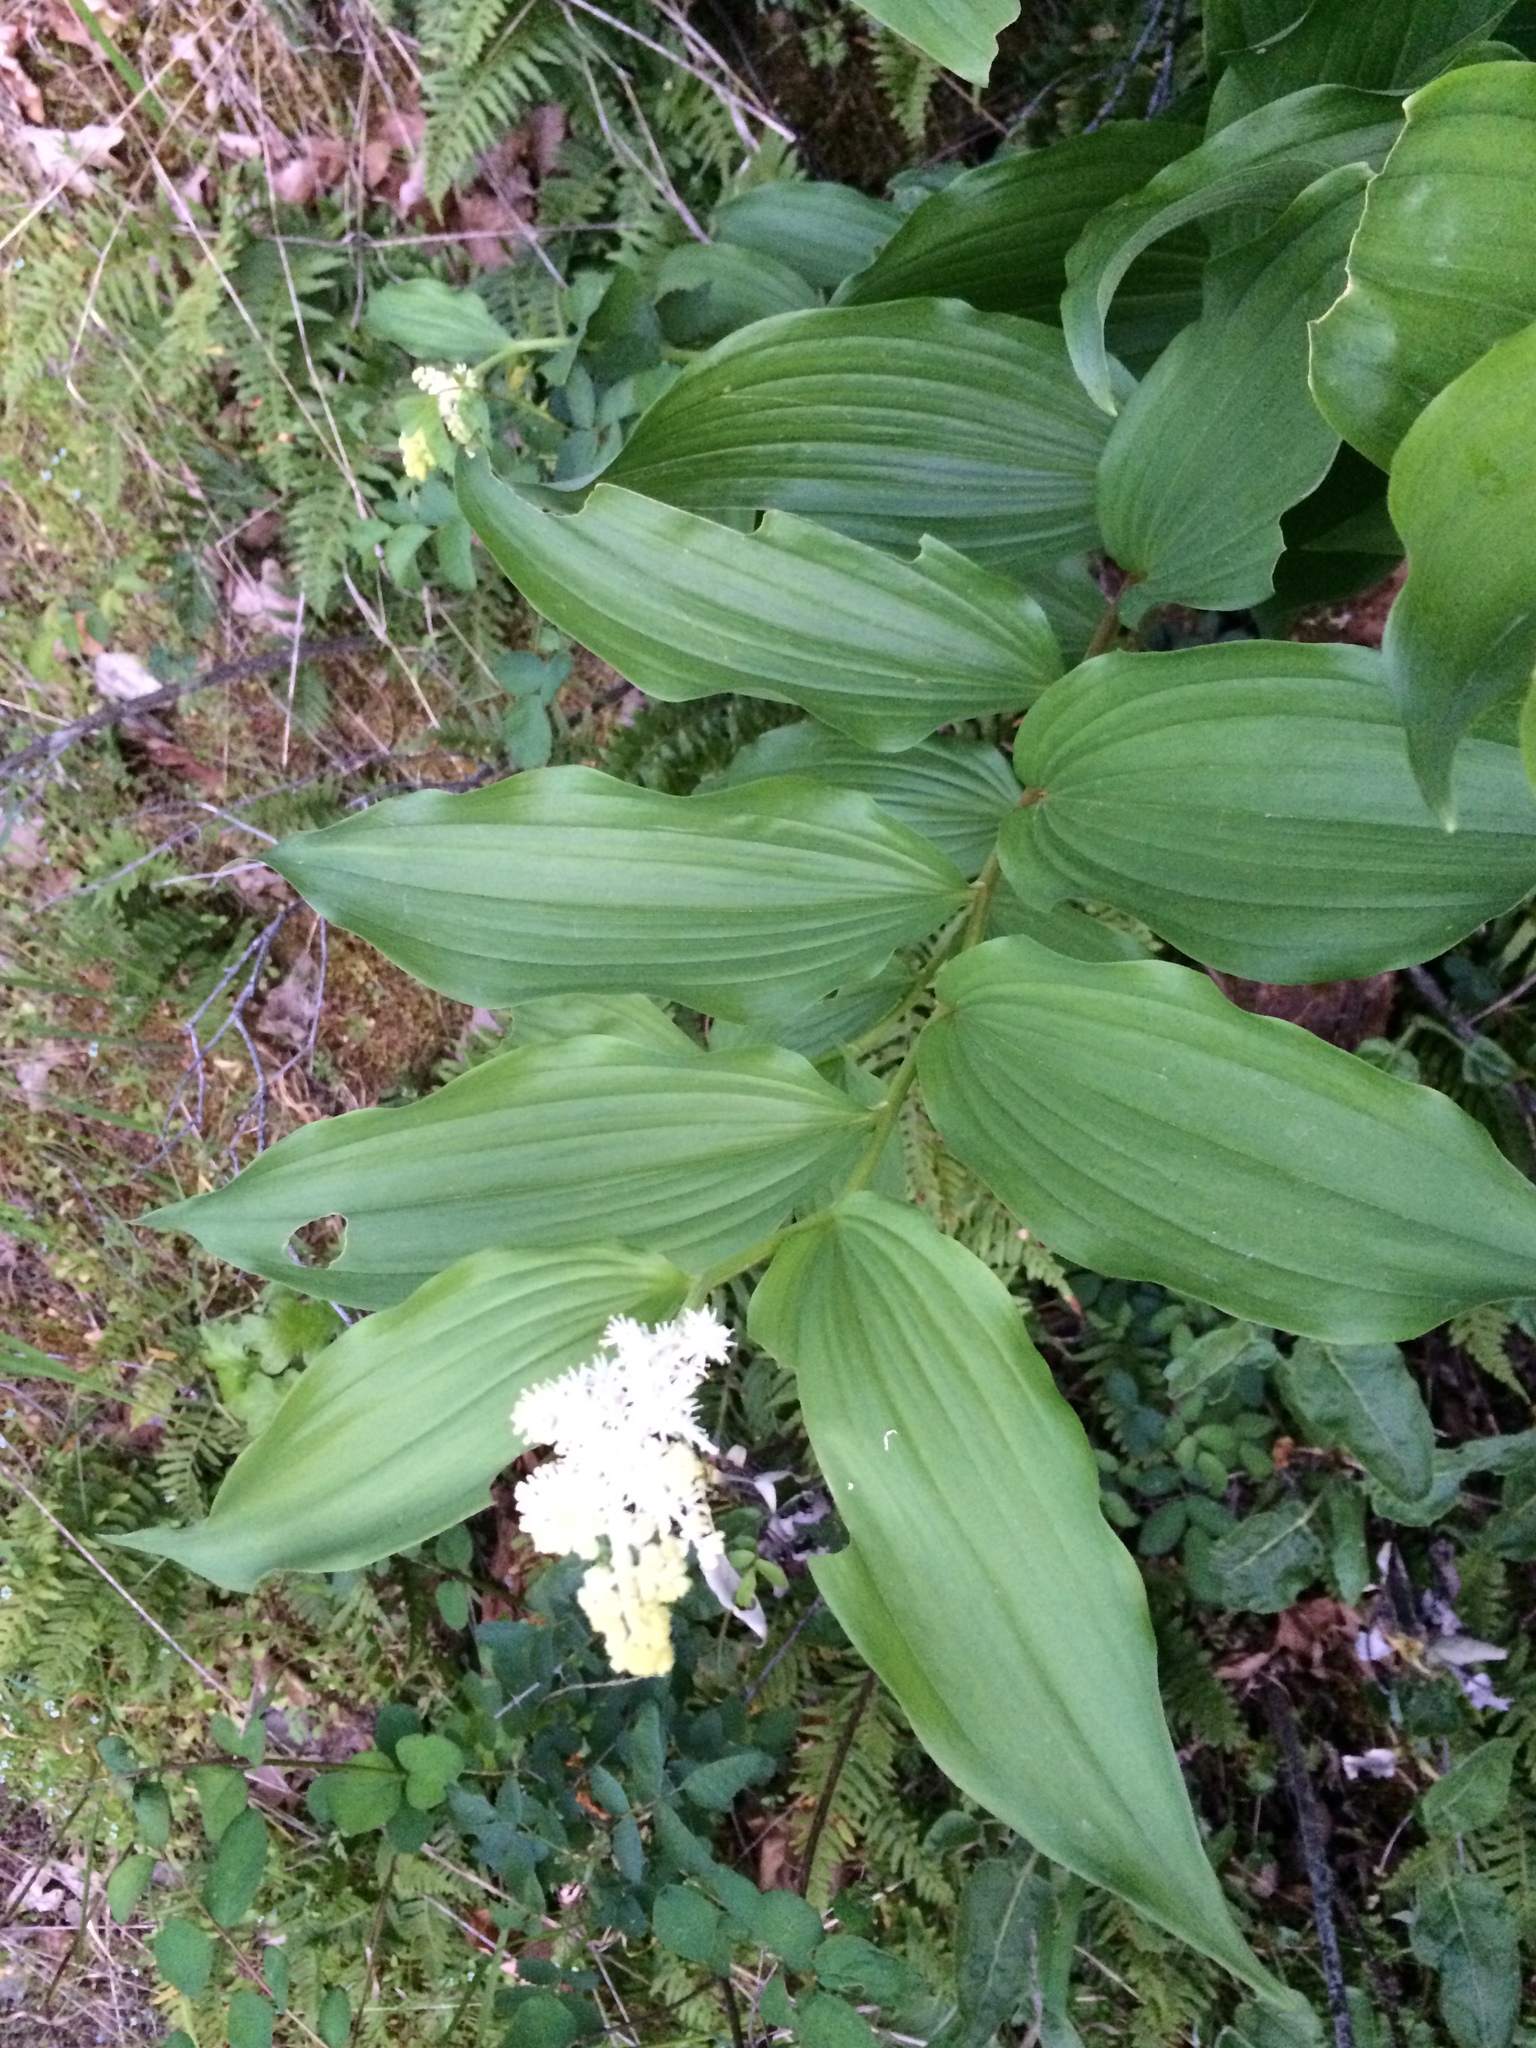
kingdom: Plantae
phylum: Tracheophyta
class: Liliopsida
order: Asparagales
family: Asparagaceae
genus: Maianthemum
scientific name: Maianthemum racemosum
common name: False spikenard
